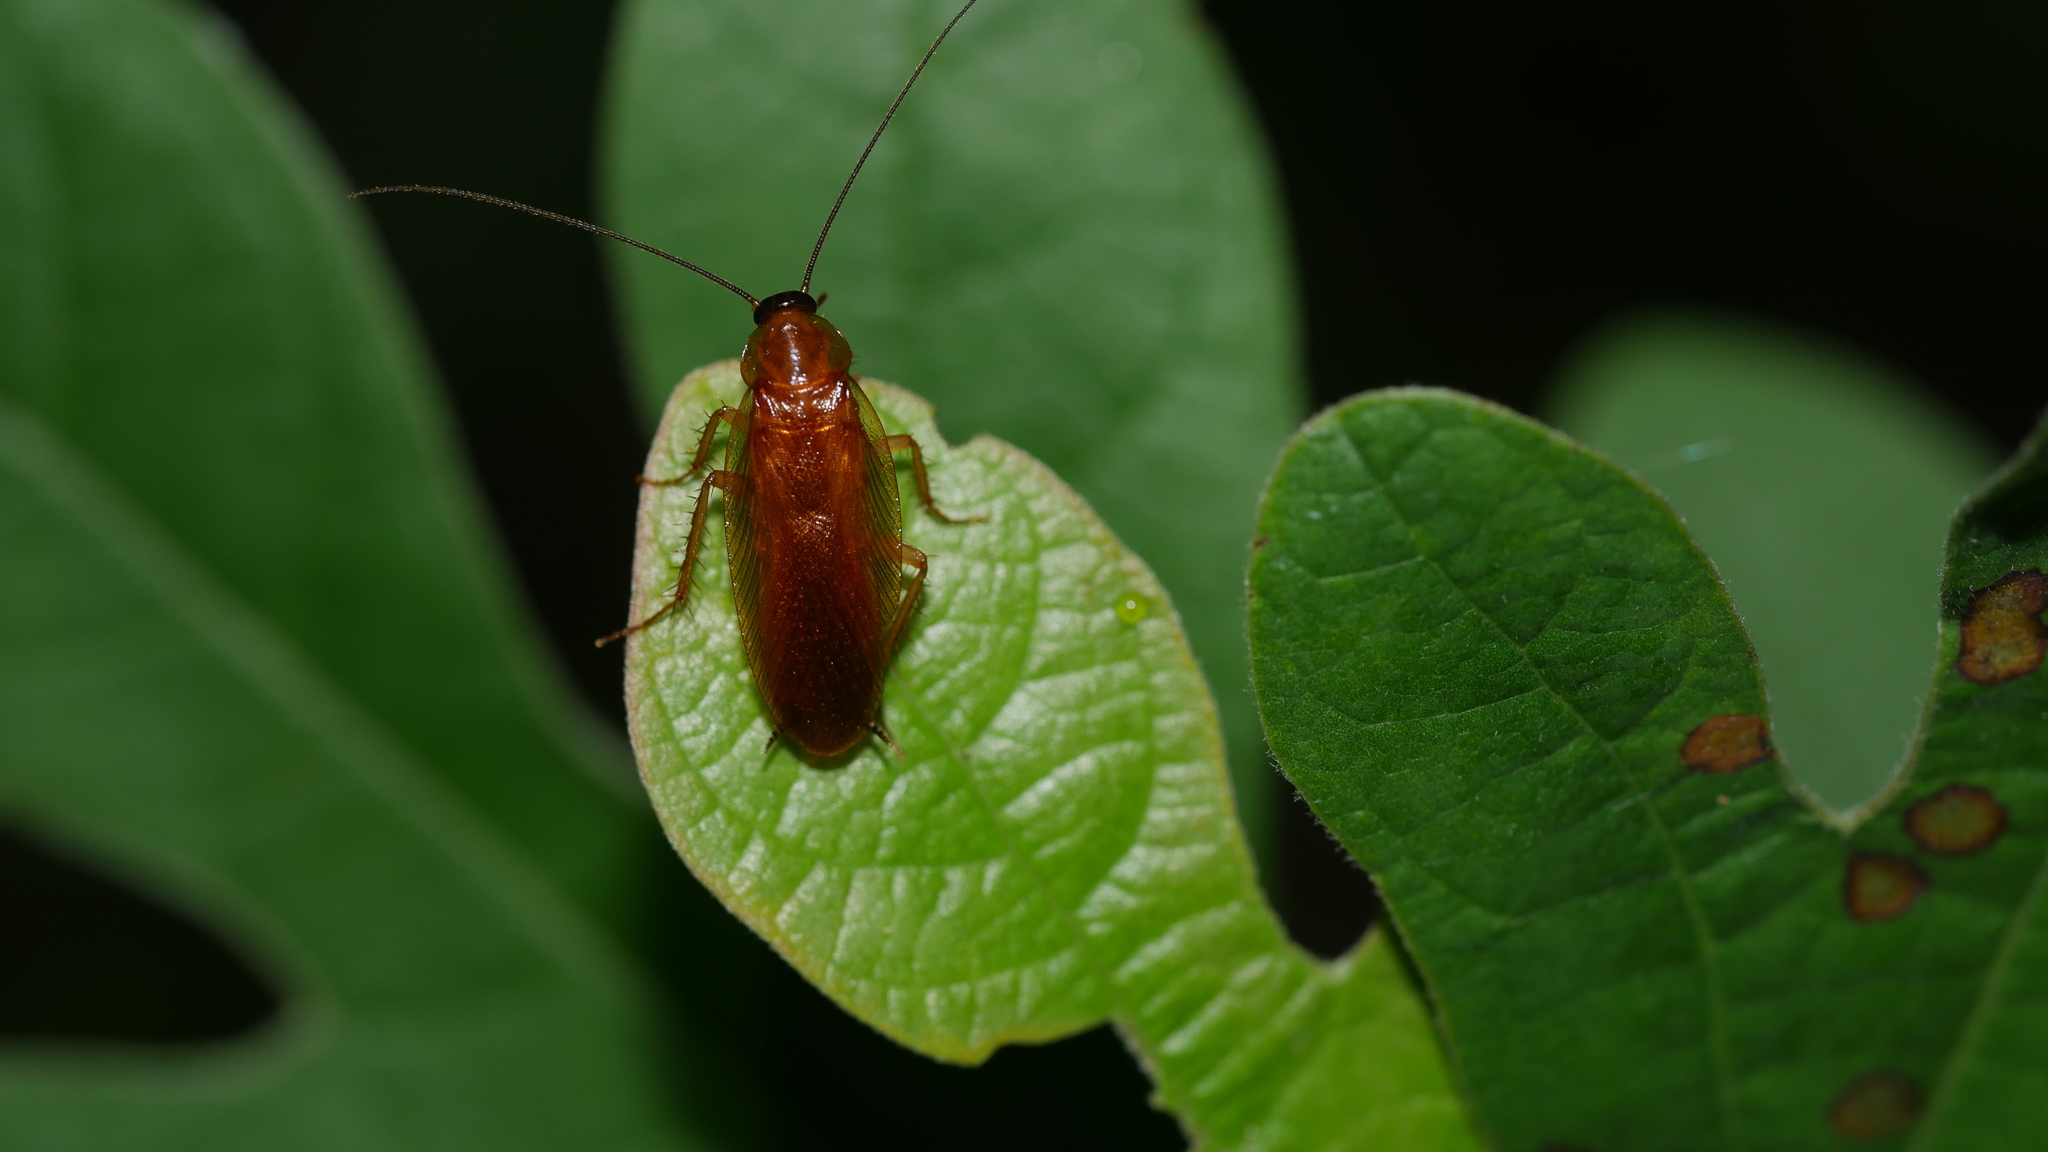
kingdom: Animalia
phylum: Arthropoda
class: Insecta
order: Blattodea
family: Ectobiidae
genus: Parcoblatta
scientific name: Parcoblatta
